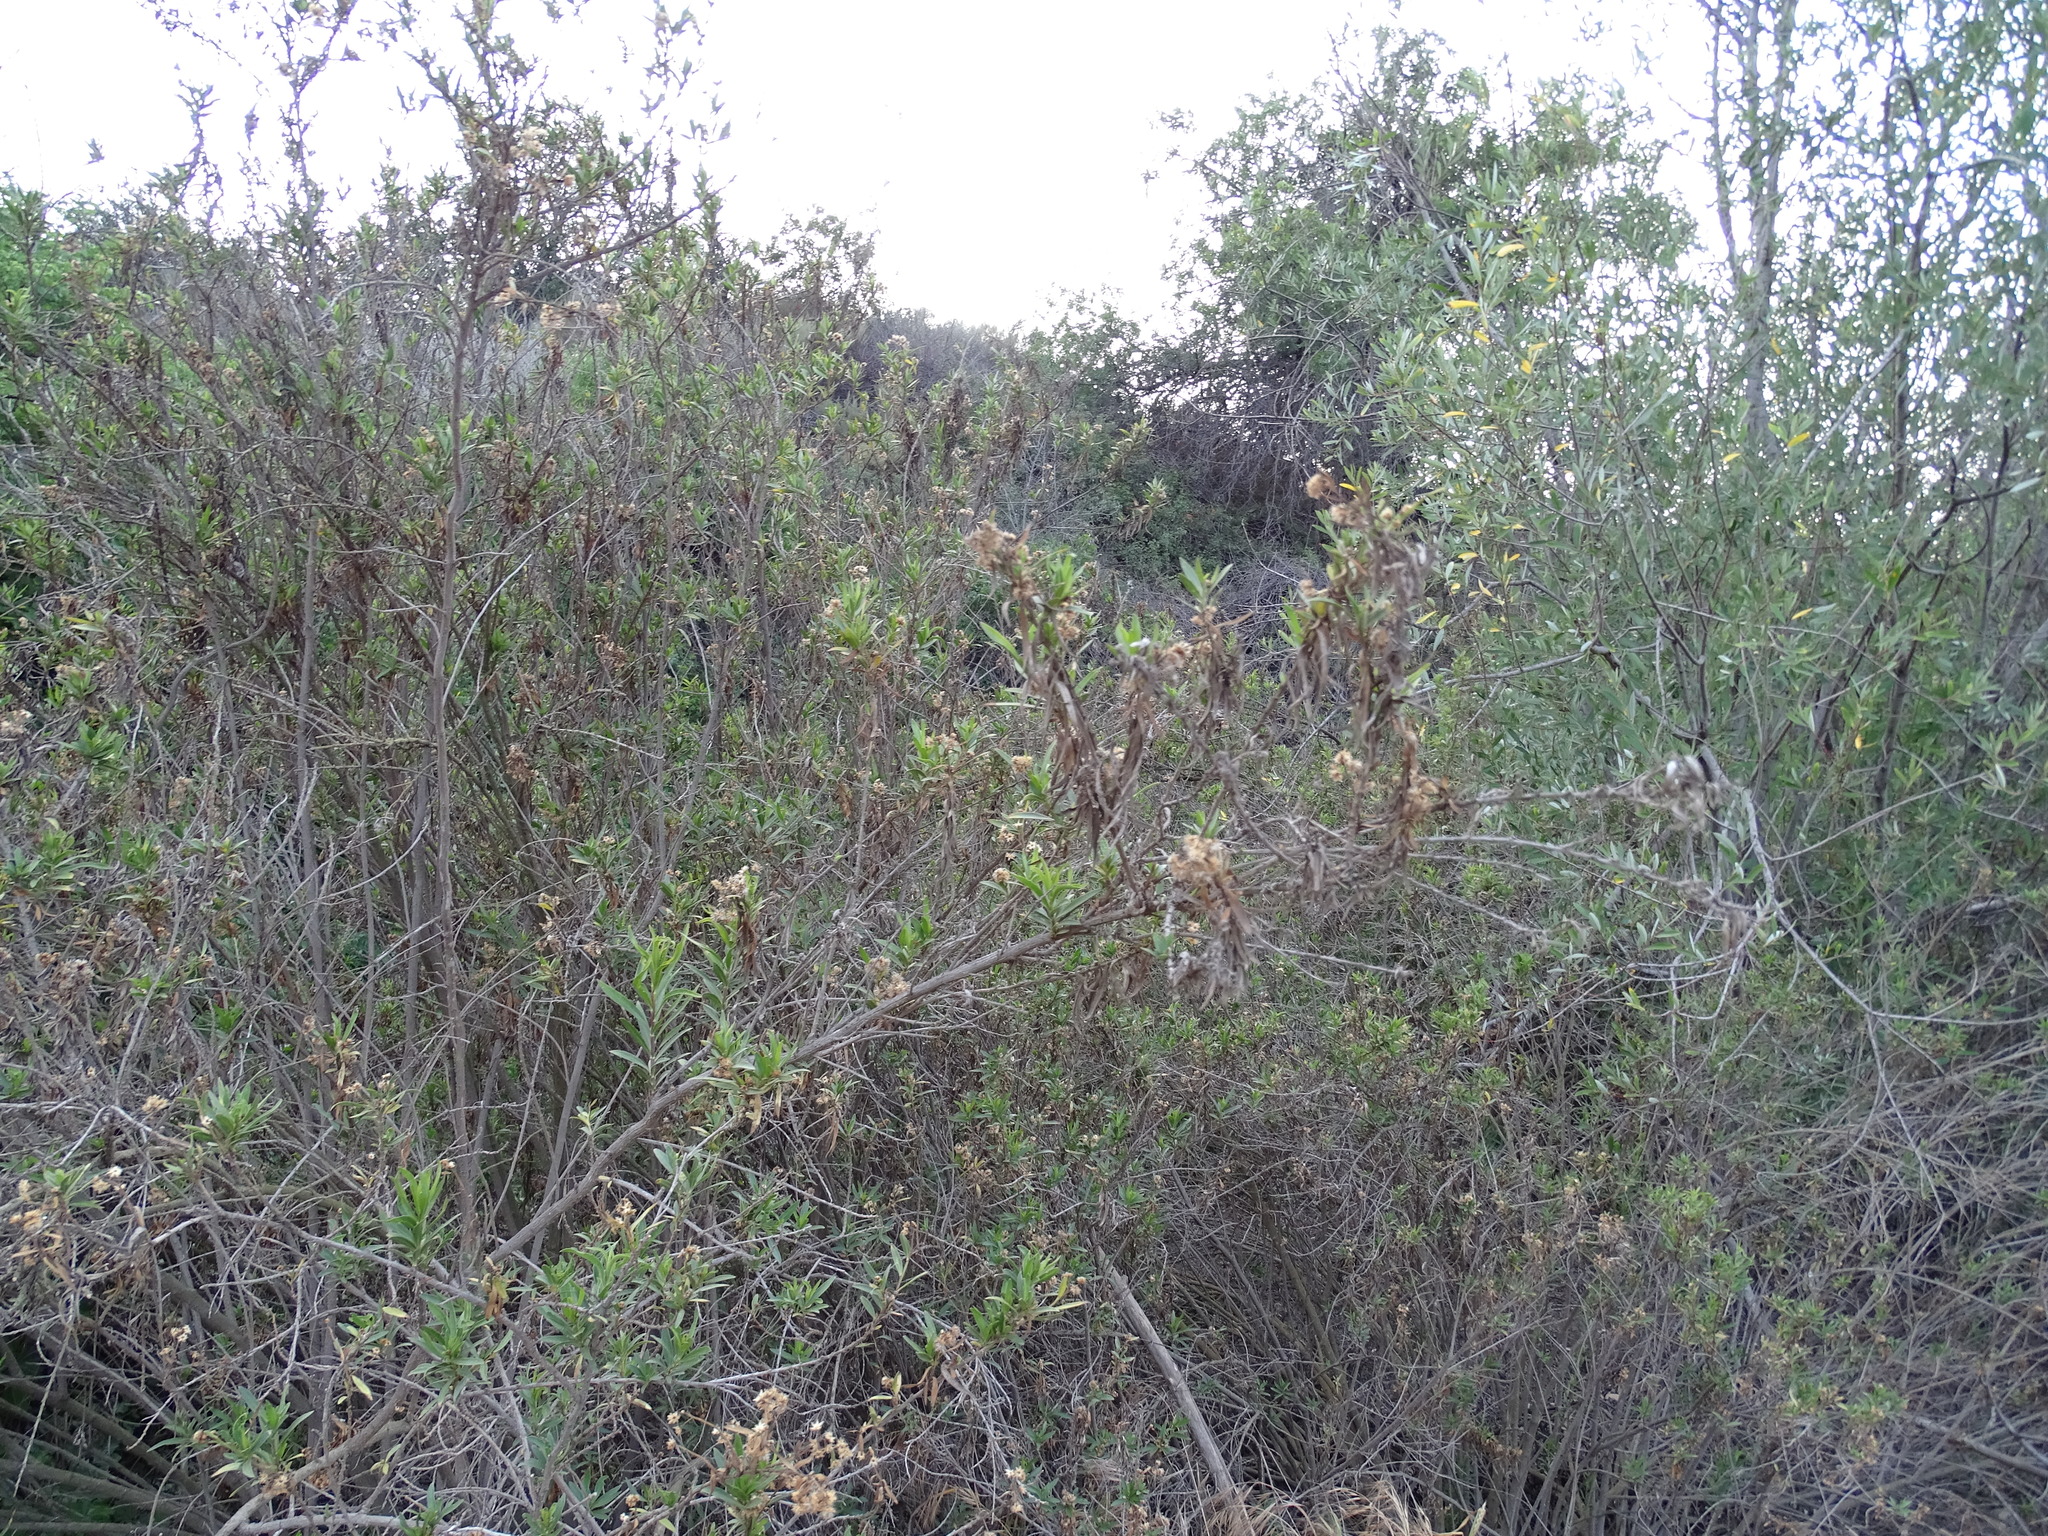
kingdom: Plantae
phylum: Tracheophyta
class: Magnoliopsida
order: Asterales
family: Asteraceae
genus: Baccharis
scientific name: Baccharis salicifolia
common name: Sticky baccharis
